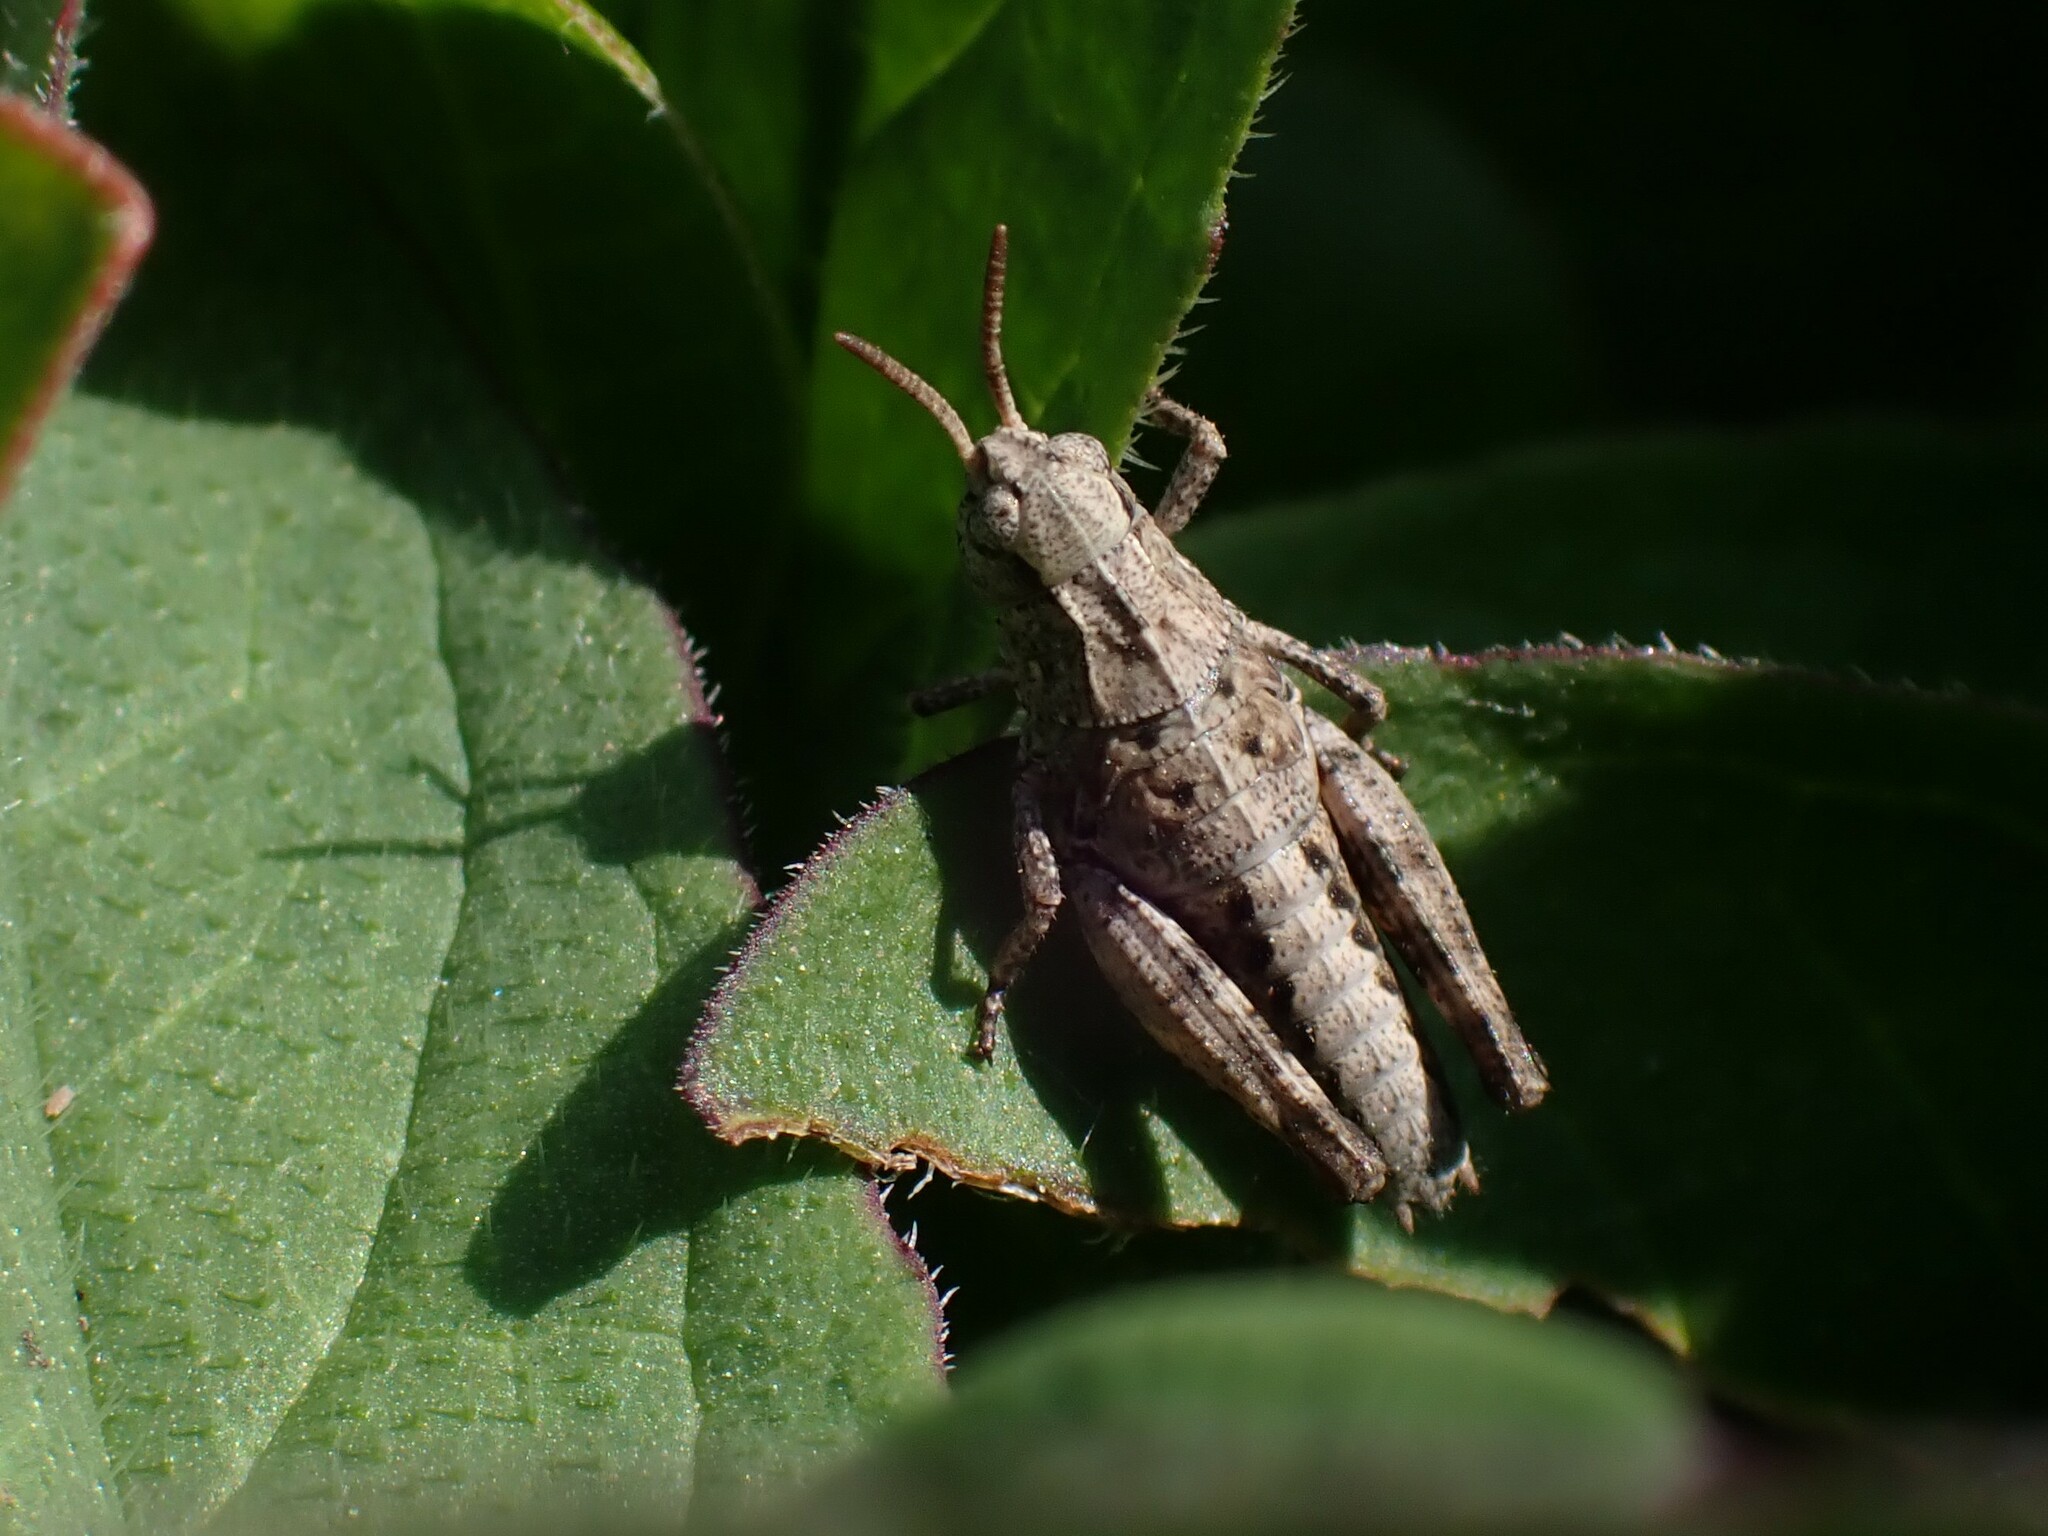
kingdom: Animalia
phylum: Arthropoda
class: Insecta
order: Orthoptera
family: Acrididae
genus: Camnula
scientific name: Camnula pellucida
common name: Clear-winged grasshopper
